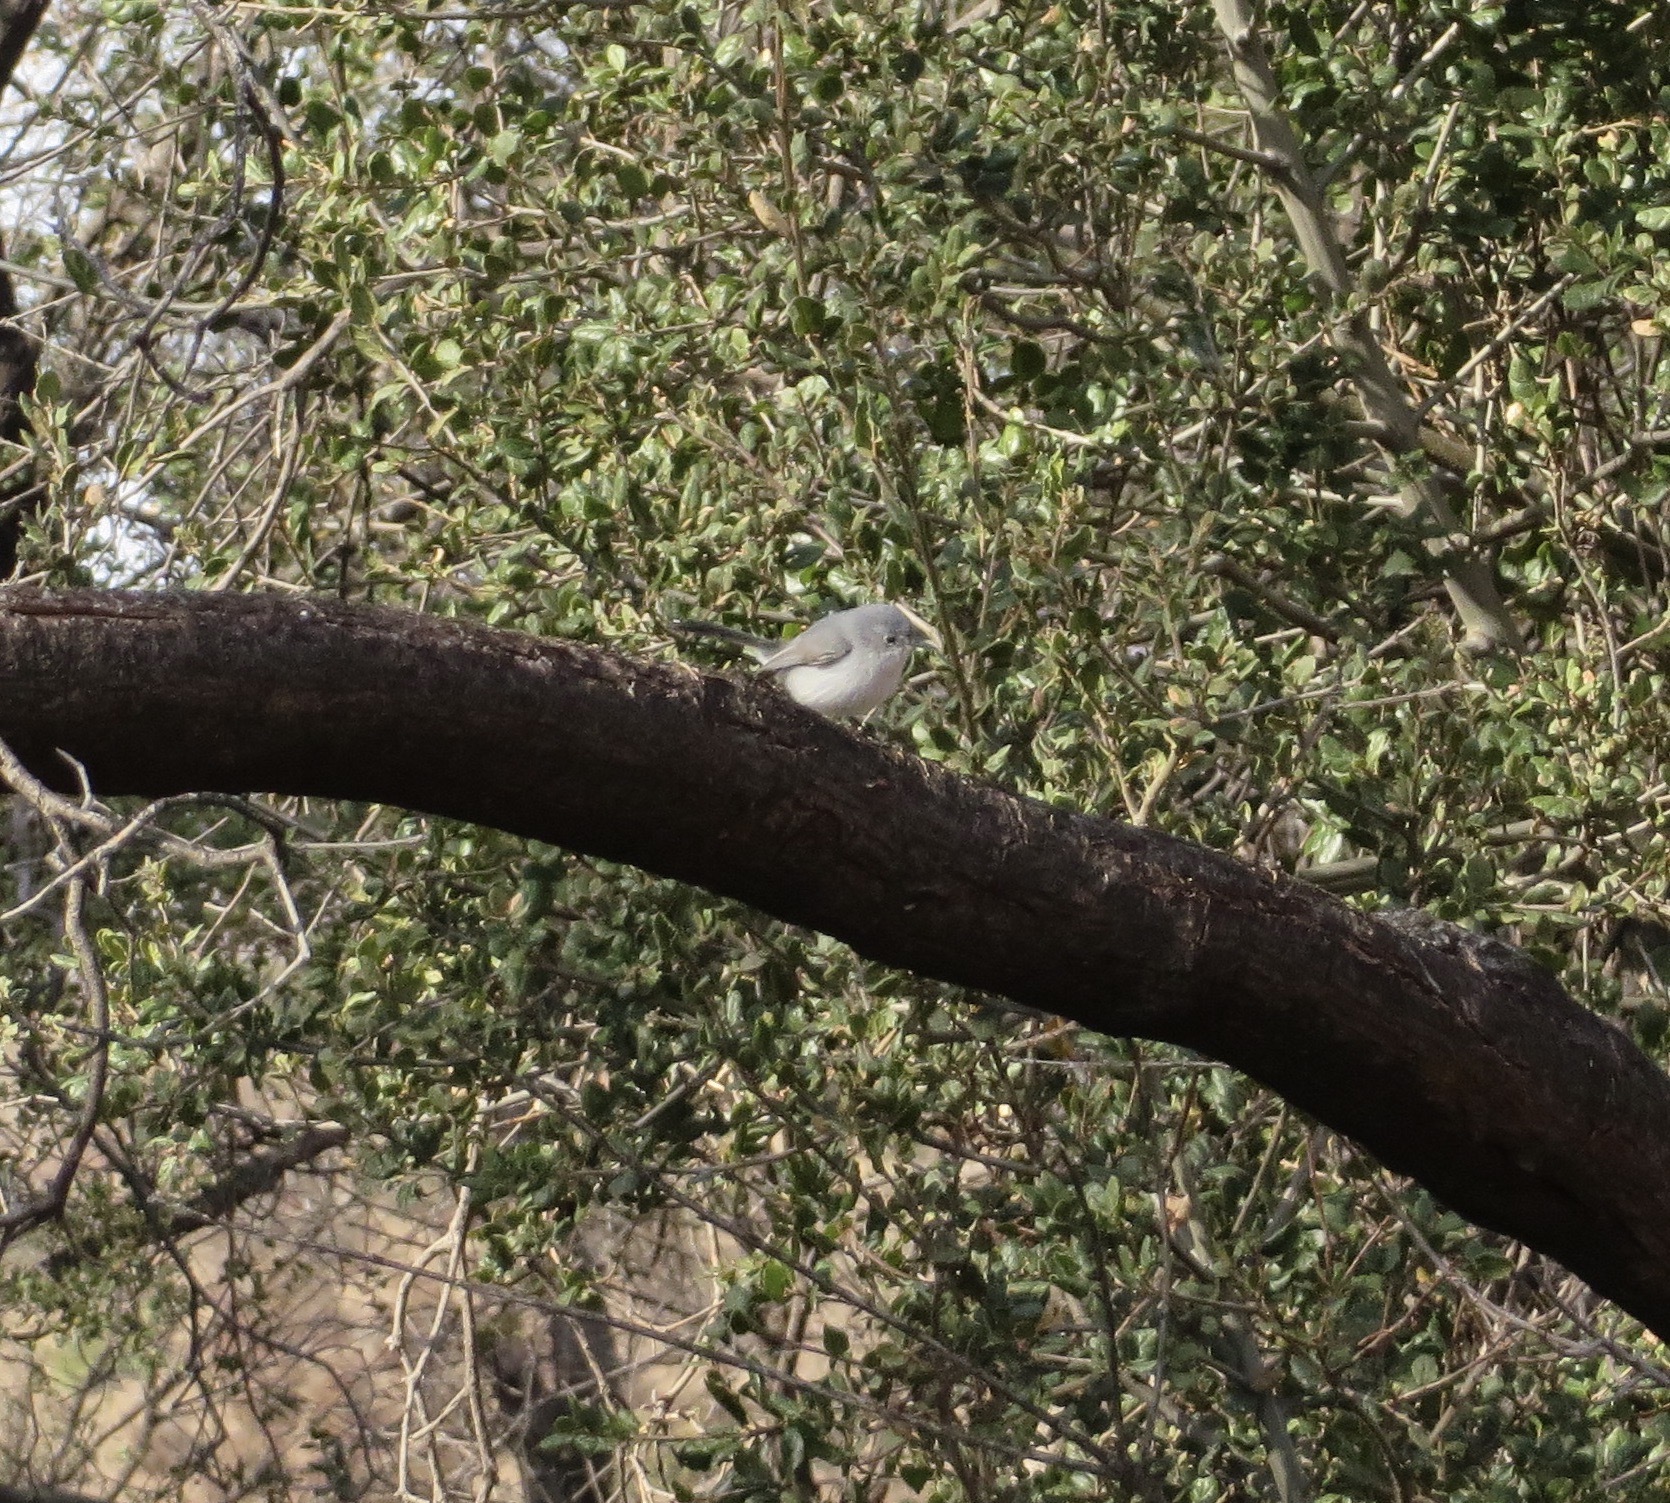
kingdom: Animalia
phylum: Chordata
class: Aves
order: Passeriformes
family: Polioptilidae
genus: Polioptila
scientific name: Polioptila caerulea
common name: Blue-gray gnatcatcher
